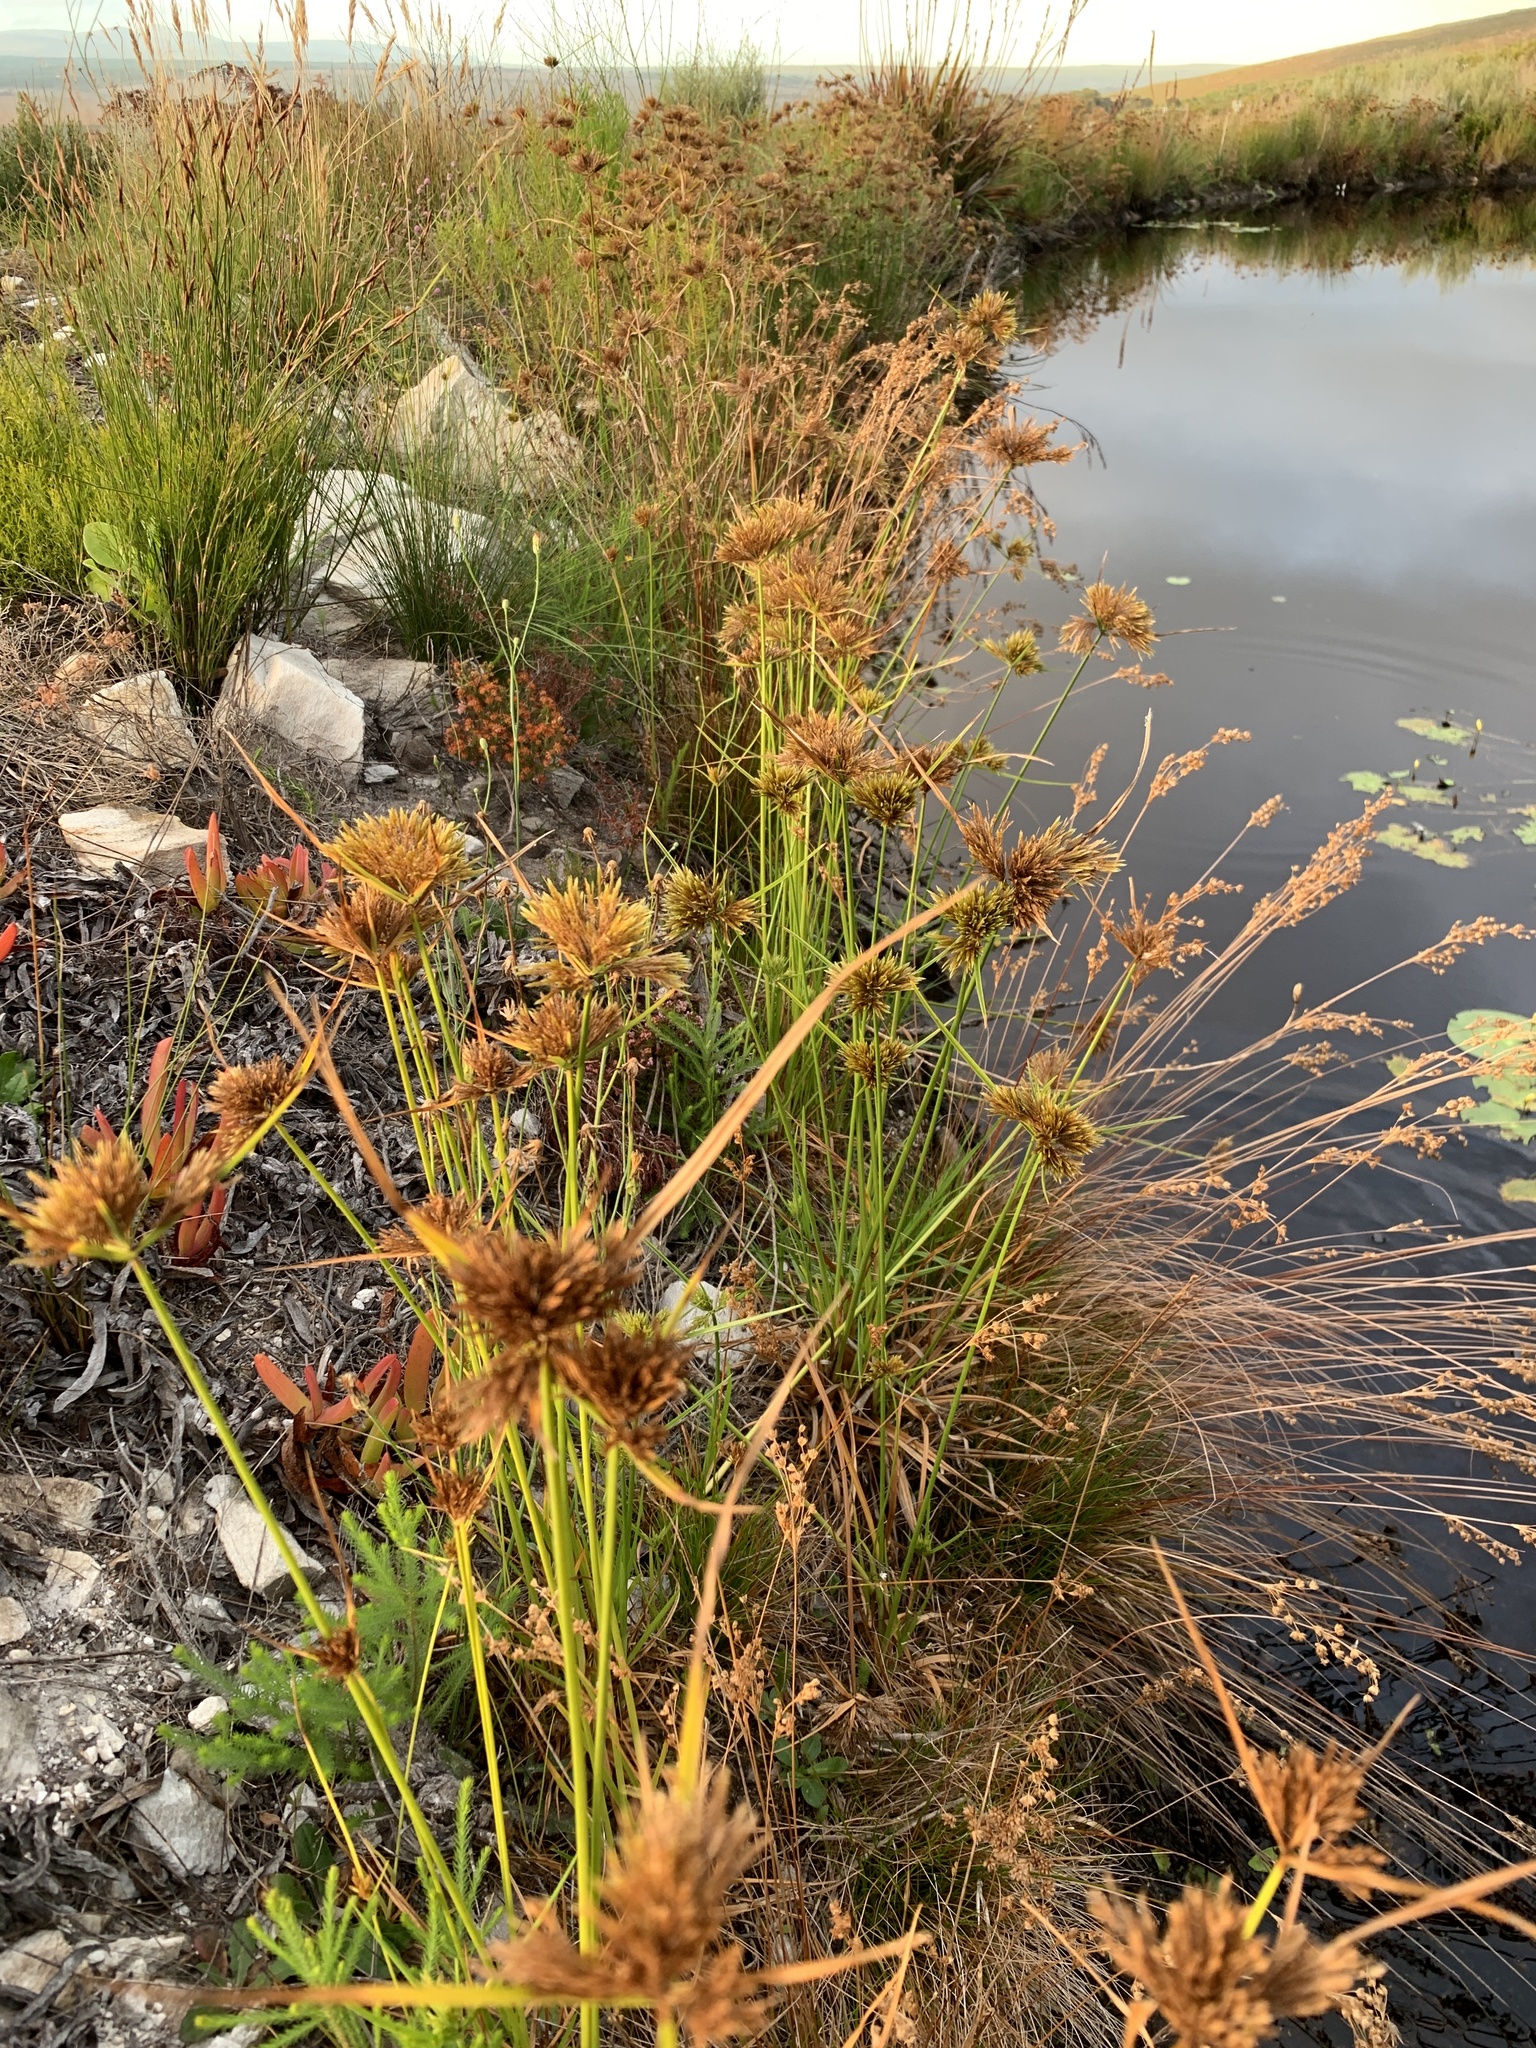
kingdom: Plantae
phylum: Tracheophyta
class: Liliopsida
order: Poales
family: Cyperaceae
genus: Cyperus
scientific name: Cyperus polystachyos
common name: Bunchy flat sedge
